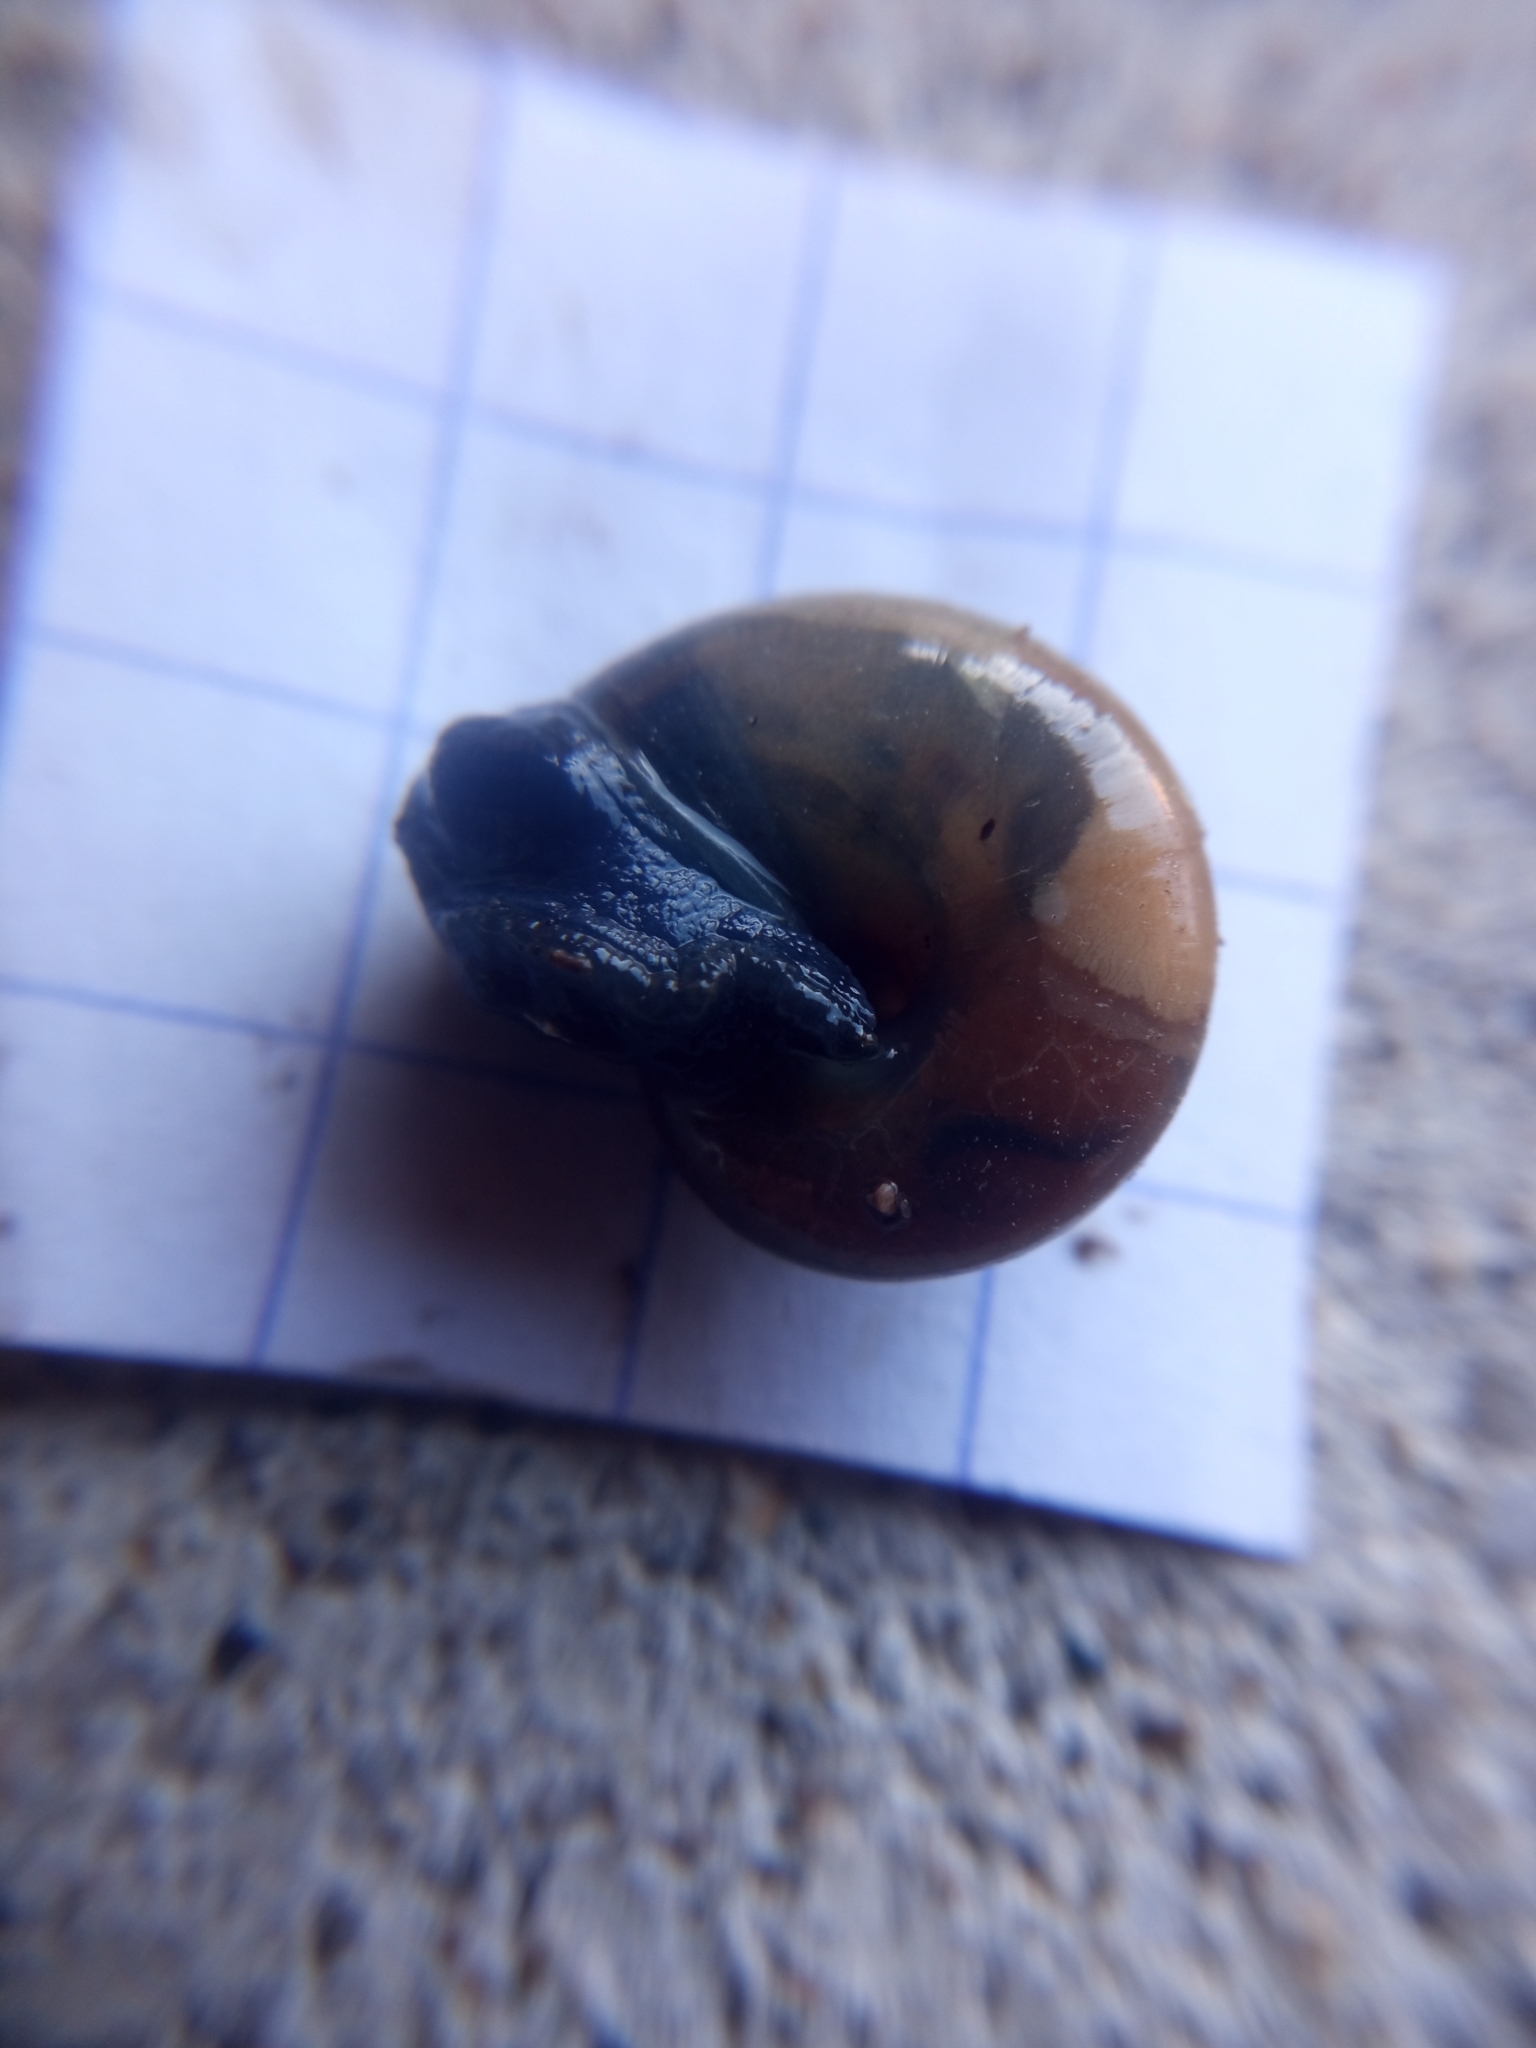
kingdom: Animalia
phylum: Mollusca
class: Gastropoda
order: Stylommatophora
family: Oxychilidae
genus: Oxychilus
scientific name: Oxychilus draparnaudi
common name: Draparnaud's glass snail
